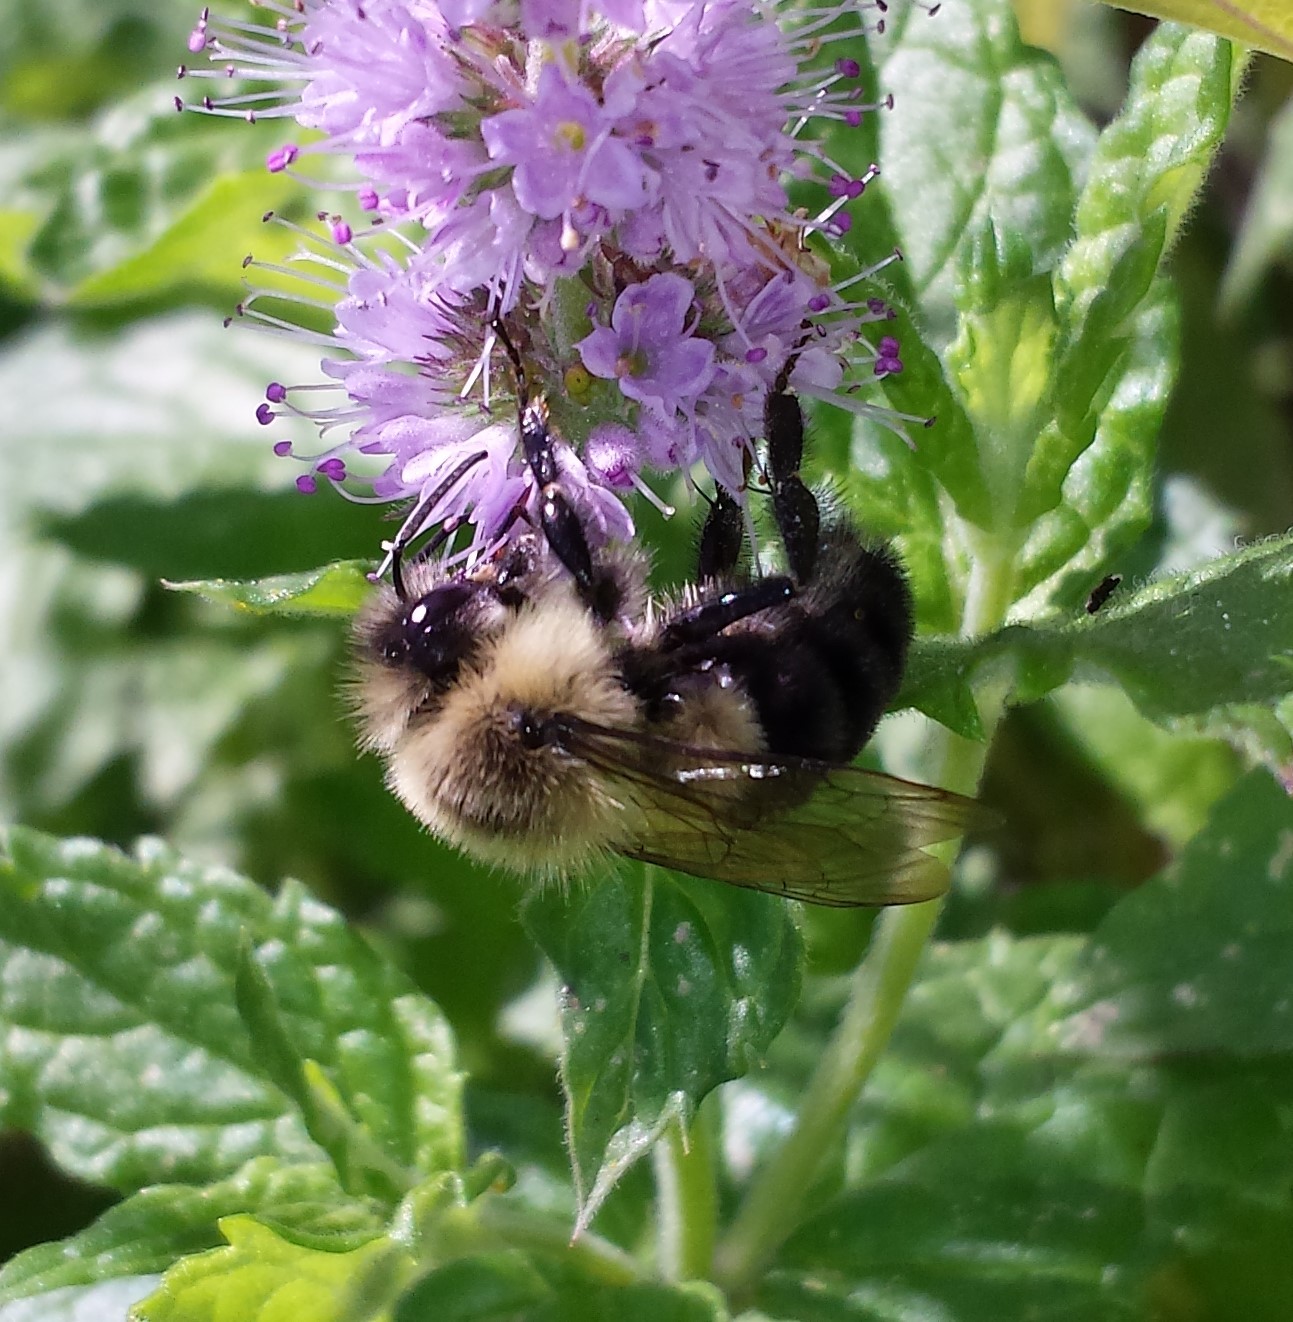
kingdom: Animalia
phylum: Arthropoda
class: Insecta
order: Hymenoptera
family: Apidae
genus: Bombus
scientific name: Bombus impatiens
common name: Common eastern bumble bee
